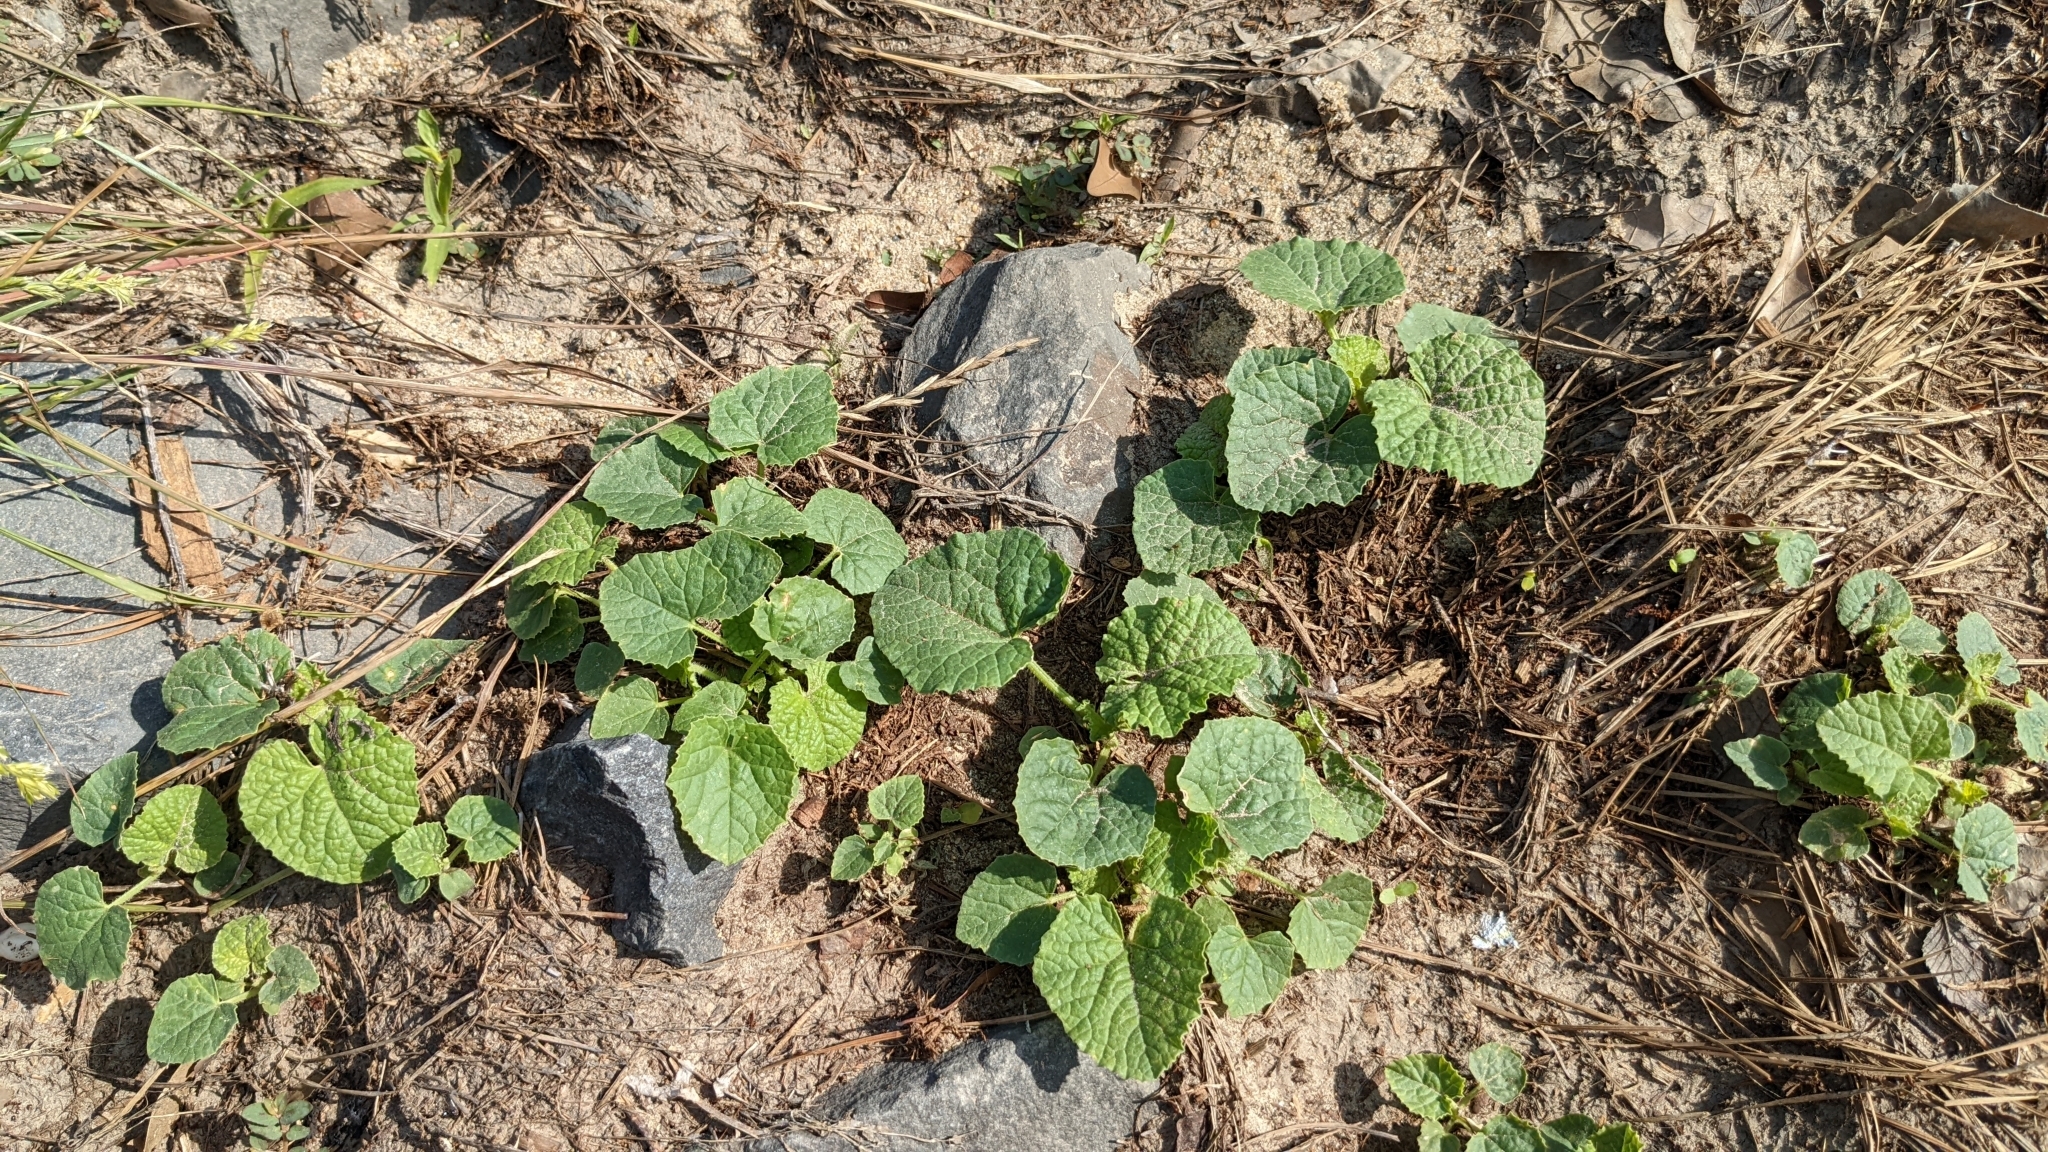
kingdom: Plantae
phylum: Tracheophyta
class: Magnoliopsida
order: Cucurbitales
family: Cucurbitaceae
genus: Cucumis
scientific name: Cucumis melo
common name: Melon
